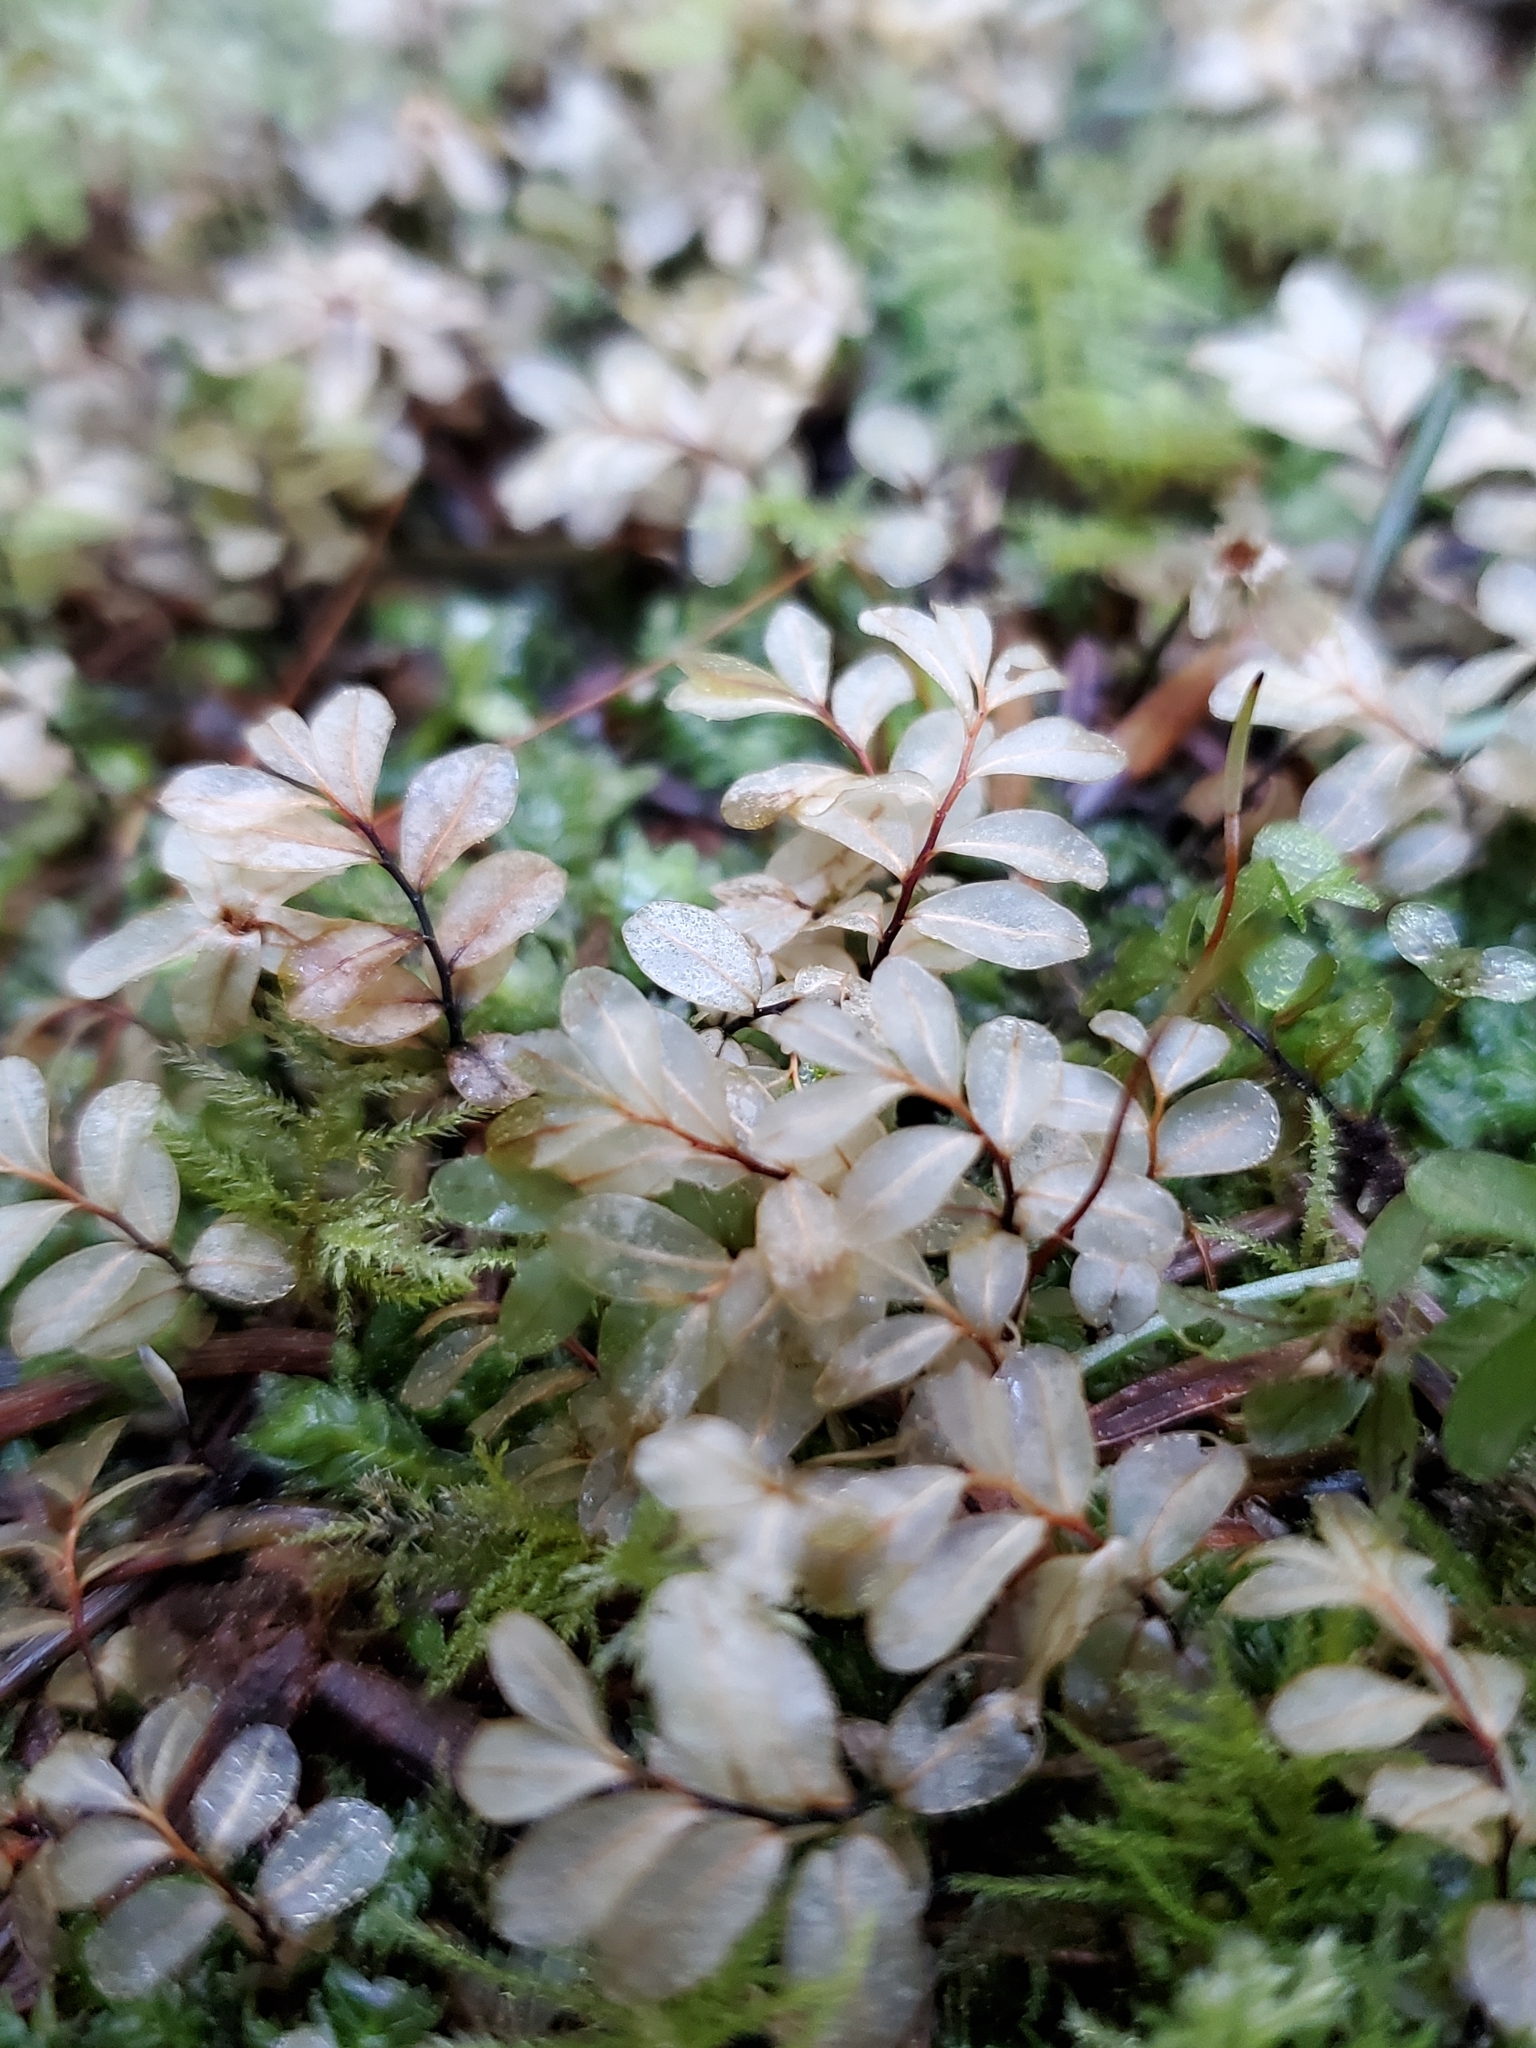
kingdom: Plantae
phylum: Bryophyta
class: Bryopsida
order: Bryales
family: Mniaceae
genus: Rhizomnium
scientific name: Rhizomnium glabrescens
